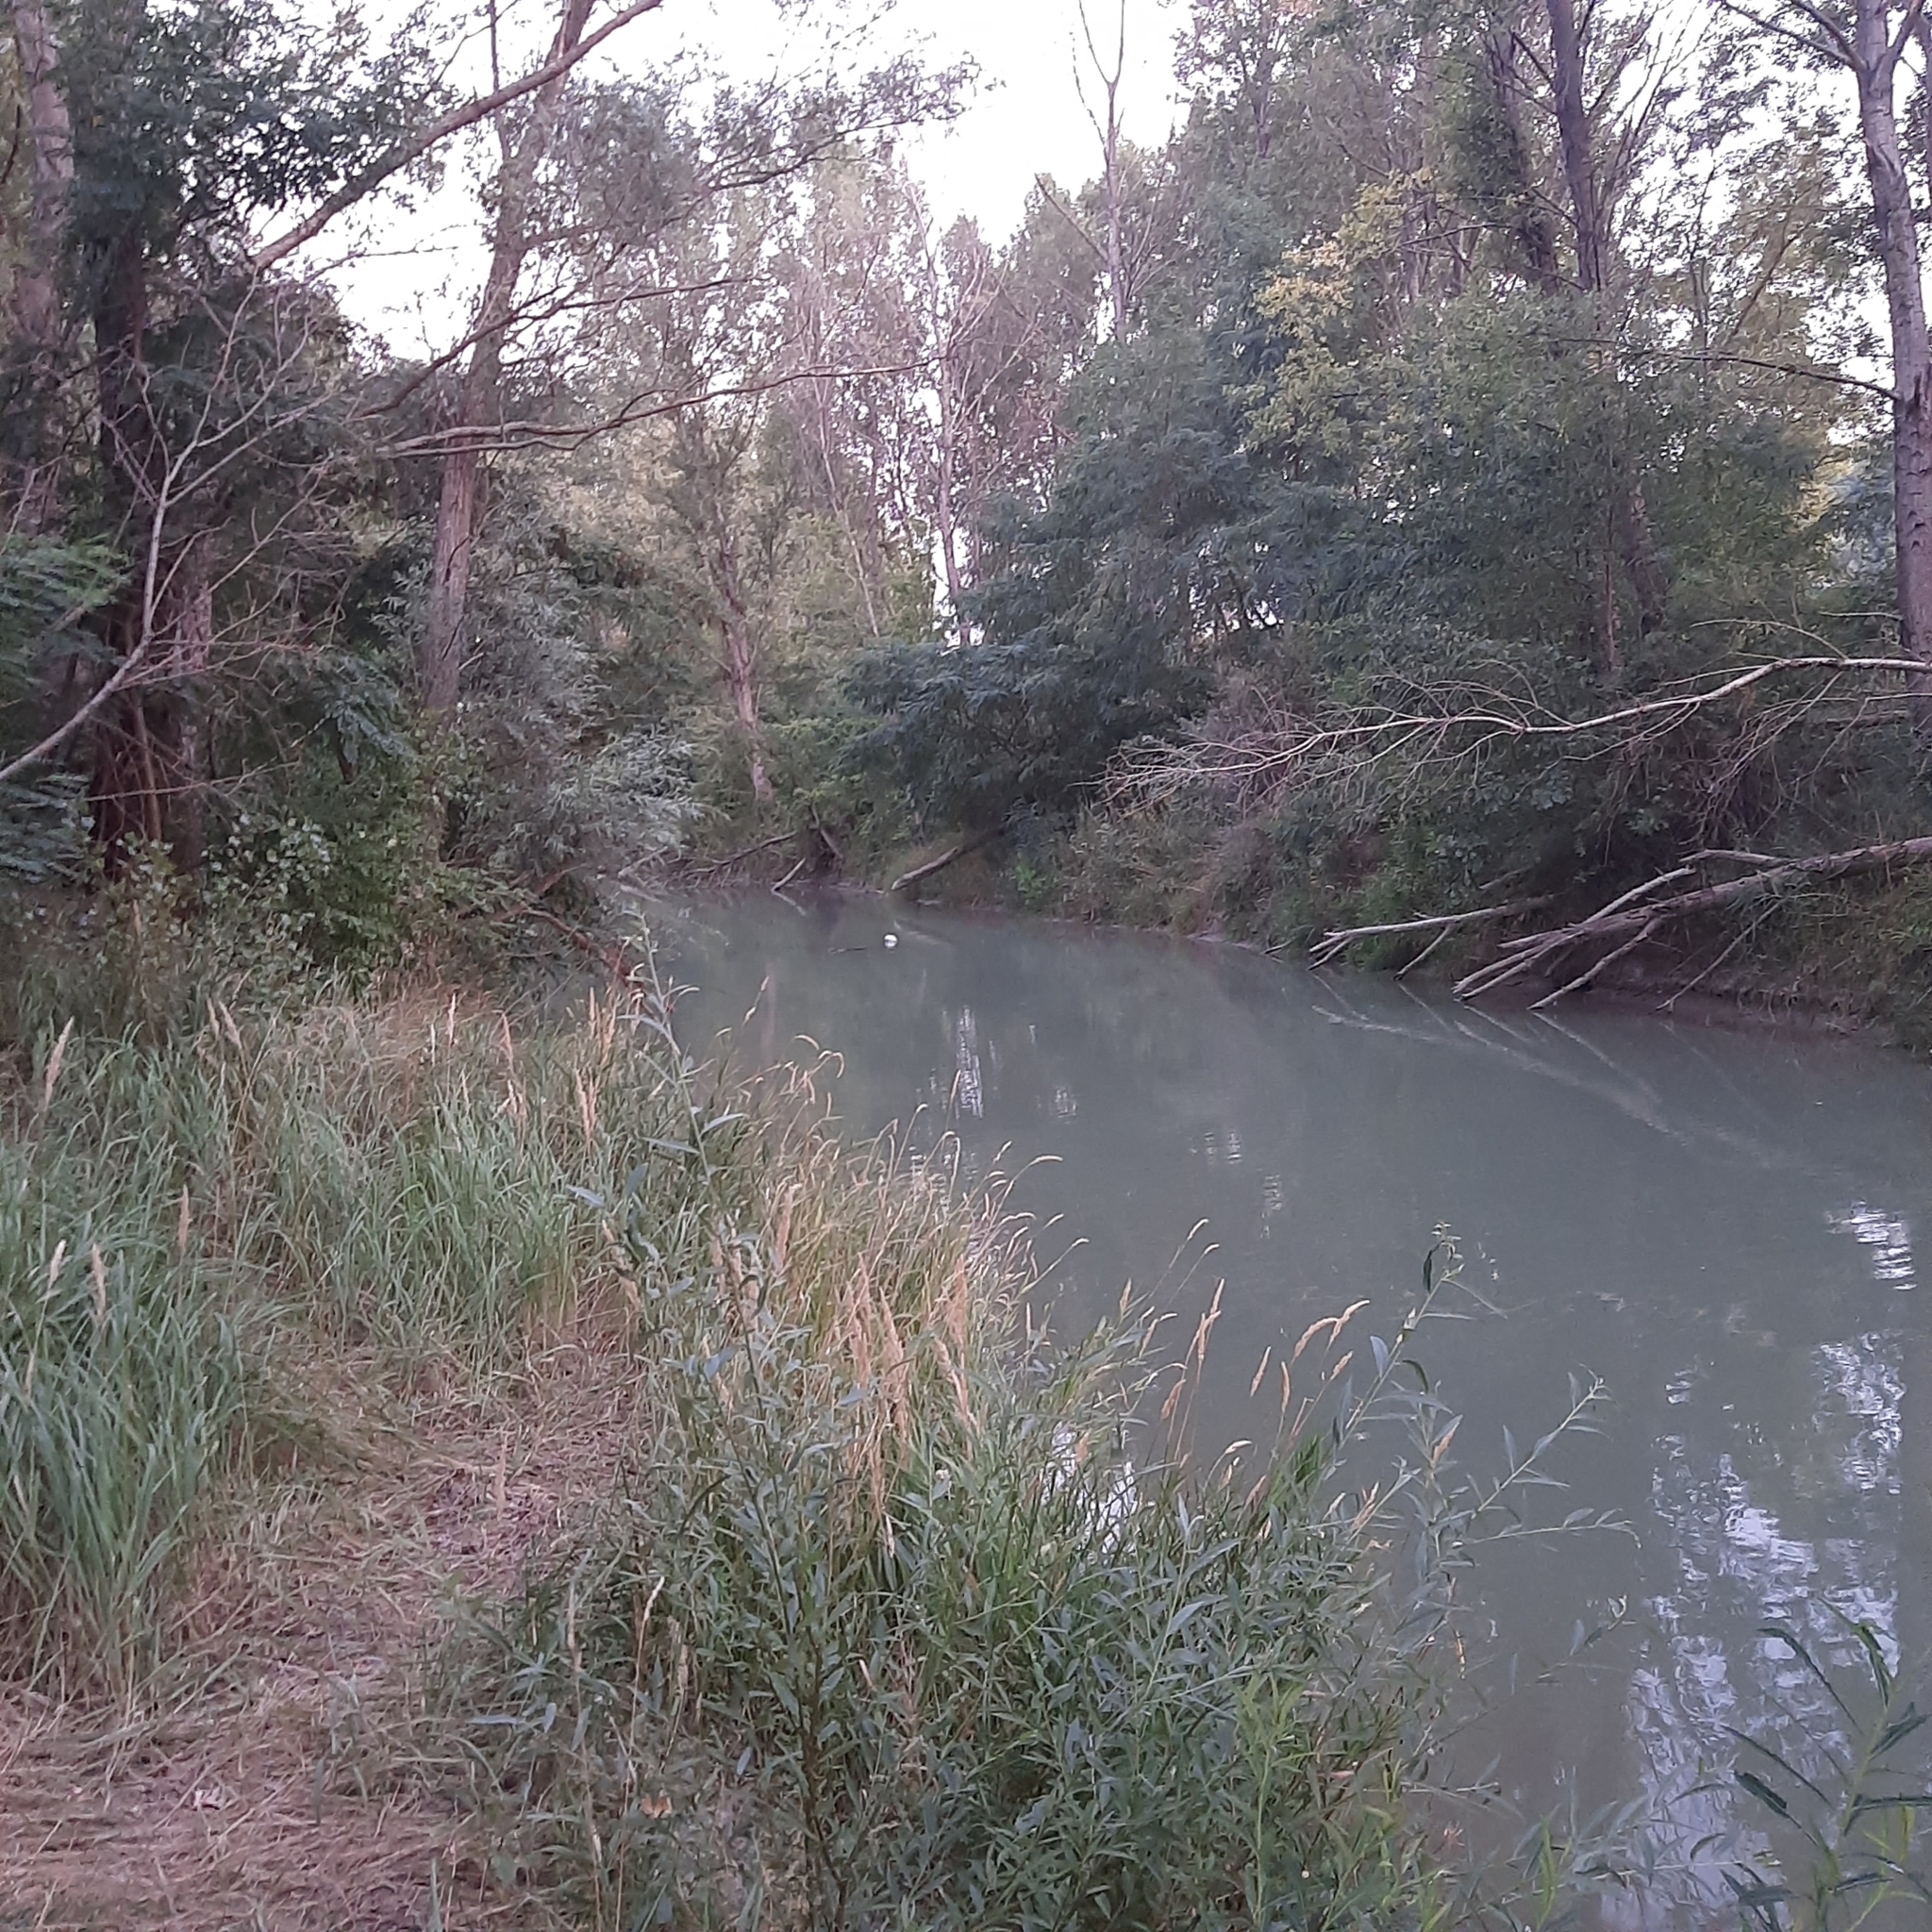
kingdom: Animalia
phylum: Chordata
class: Mammalia
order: Rodentia
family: Castoridae
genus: Castor
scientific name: Castor fiber
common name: Eurasian beaver
